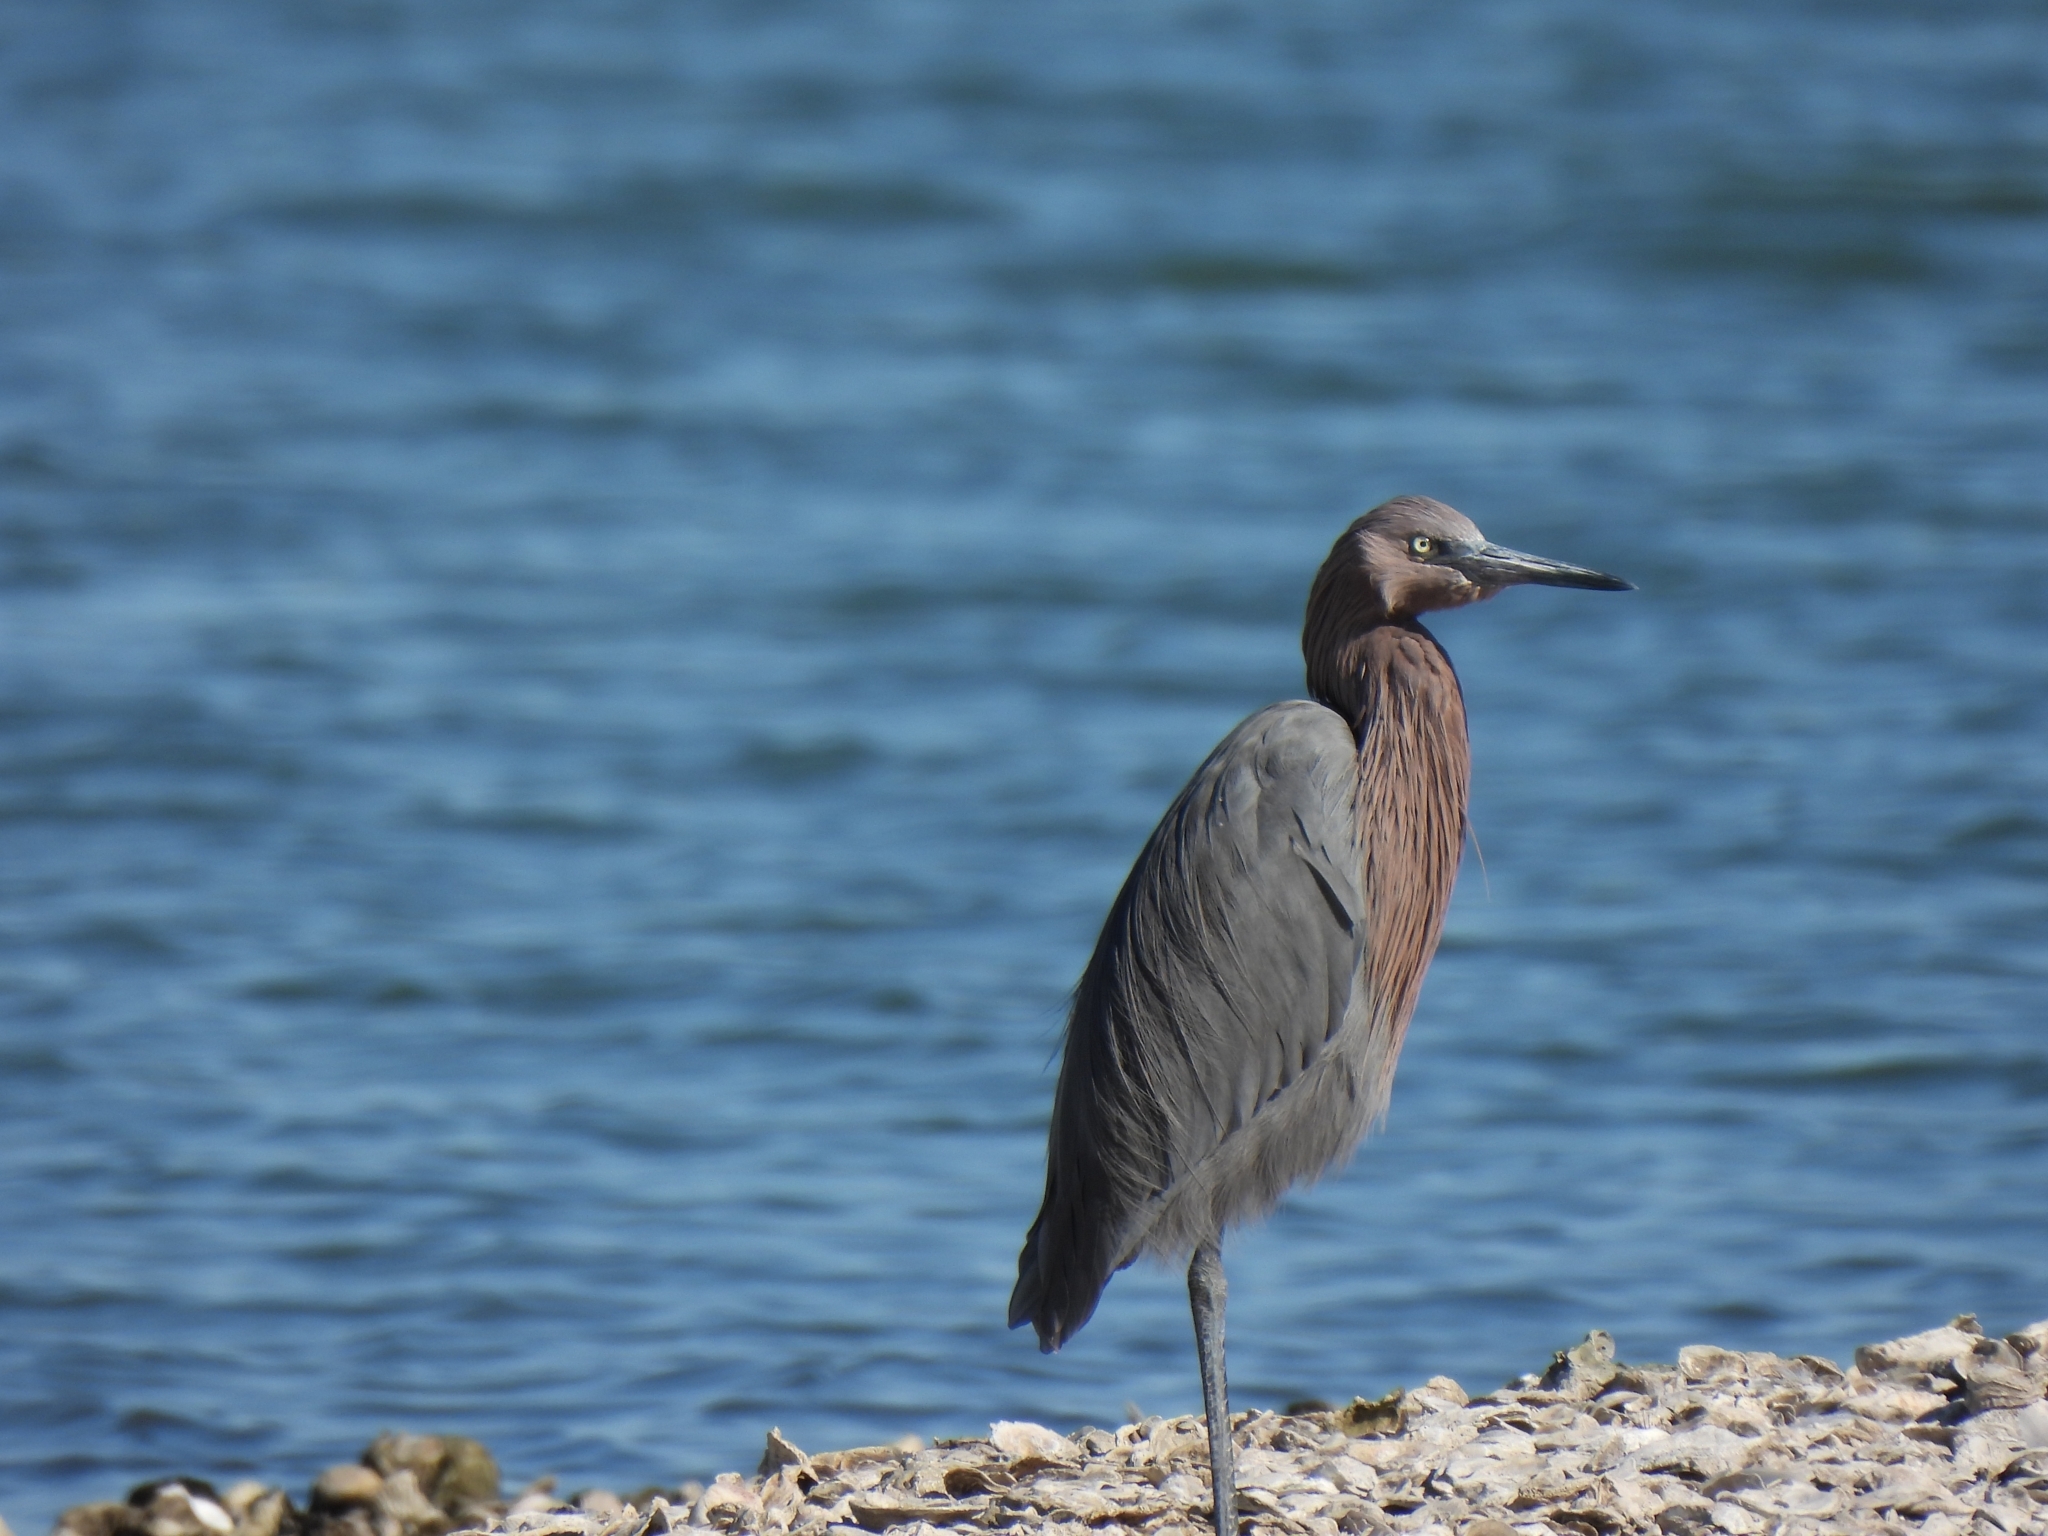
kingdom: Animalia
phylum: Chordata
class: Aves
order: Pelecaniformes
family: Ardeidae
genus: Egretta
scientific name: Egretta rufescens
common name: Reddish egret
